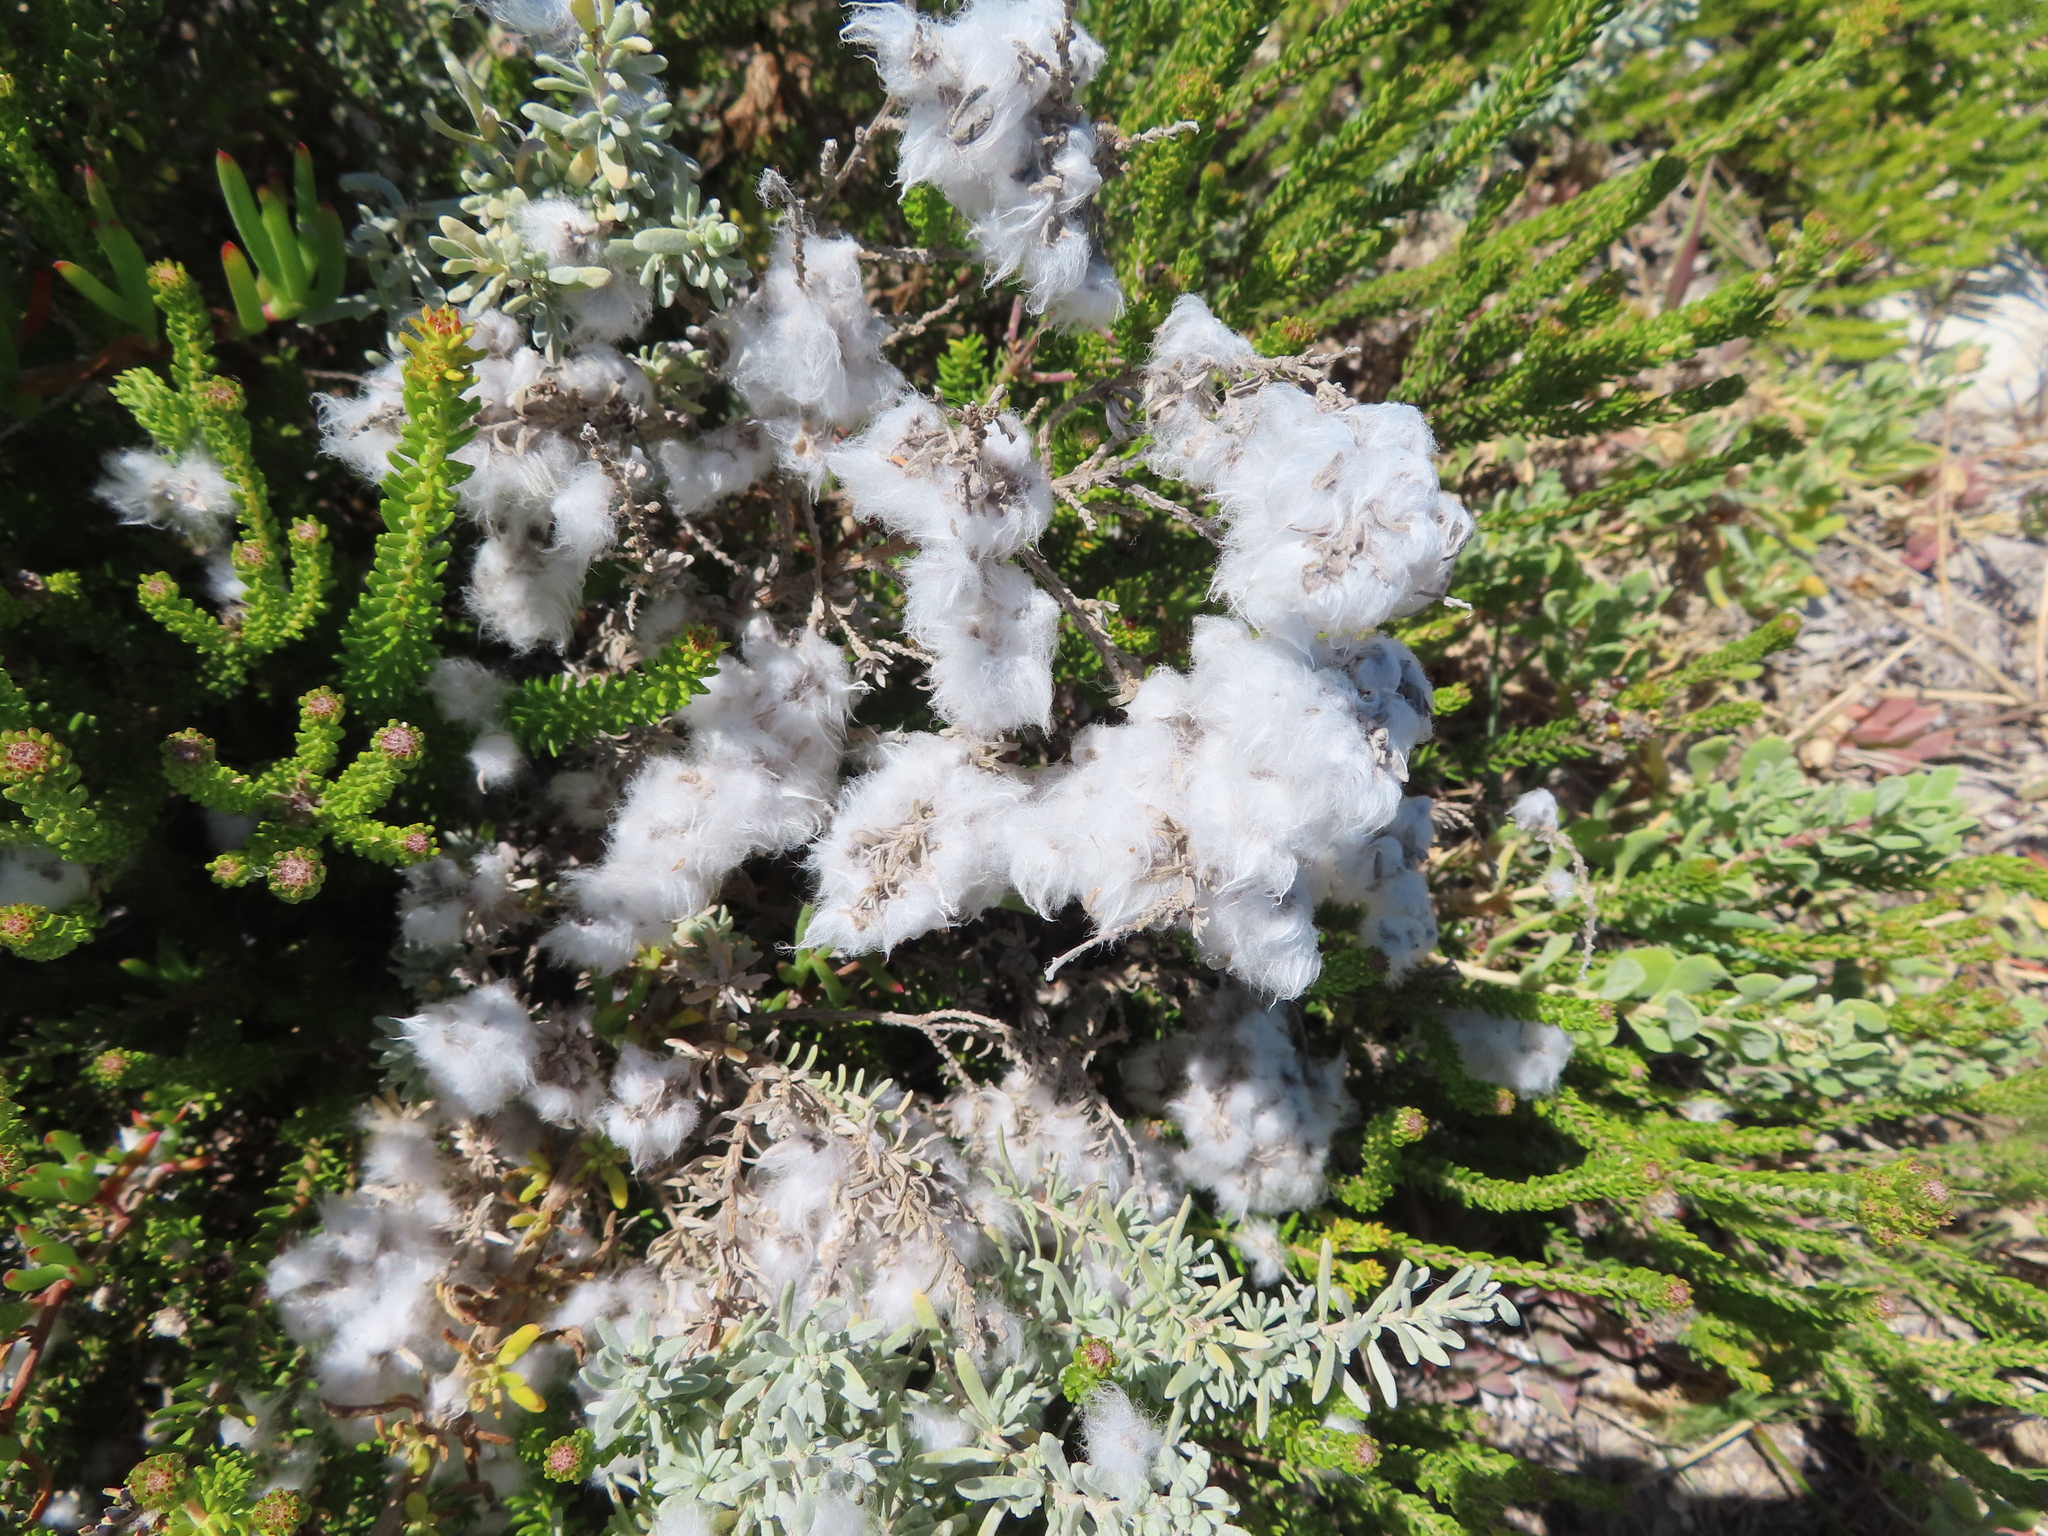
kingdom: Plantae
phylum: Tracheophyta
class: Magnoliopsida
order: Asterales
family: Asteraceae
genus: Eriocephalus
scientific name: Eriocephalus racemosus
